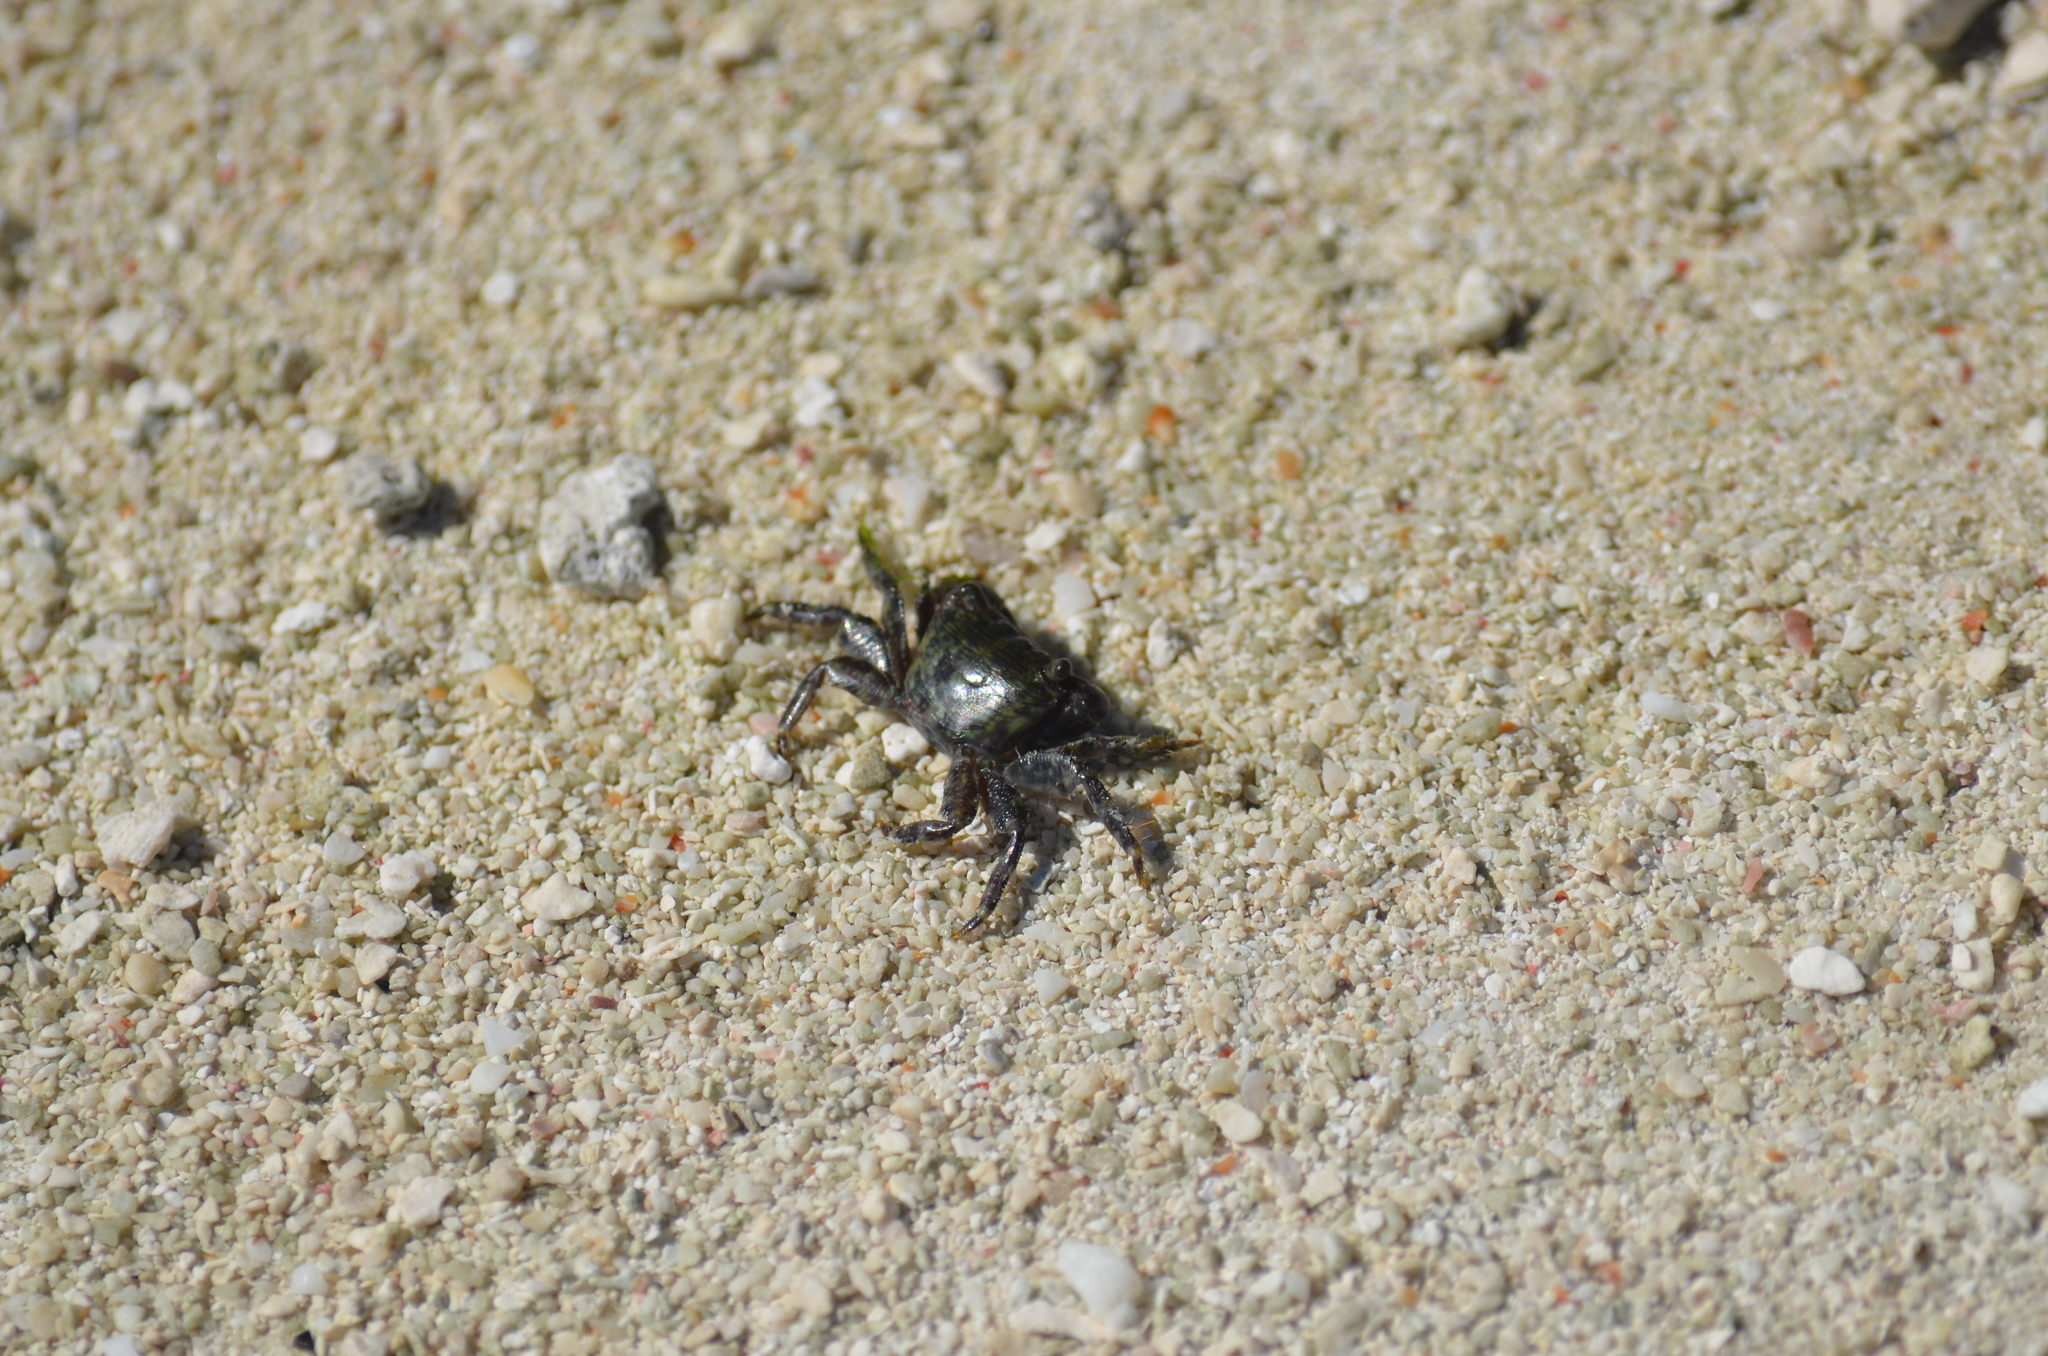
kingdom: Animalia
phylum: Arthropoda
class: Malacostraca
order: Decapoda
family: Grapsidae
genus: Pachygrapsus
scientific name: Pachygrapsus transversus
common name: Mottled shore crab
